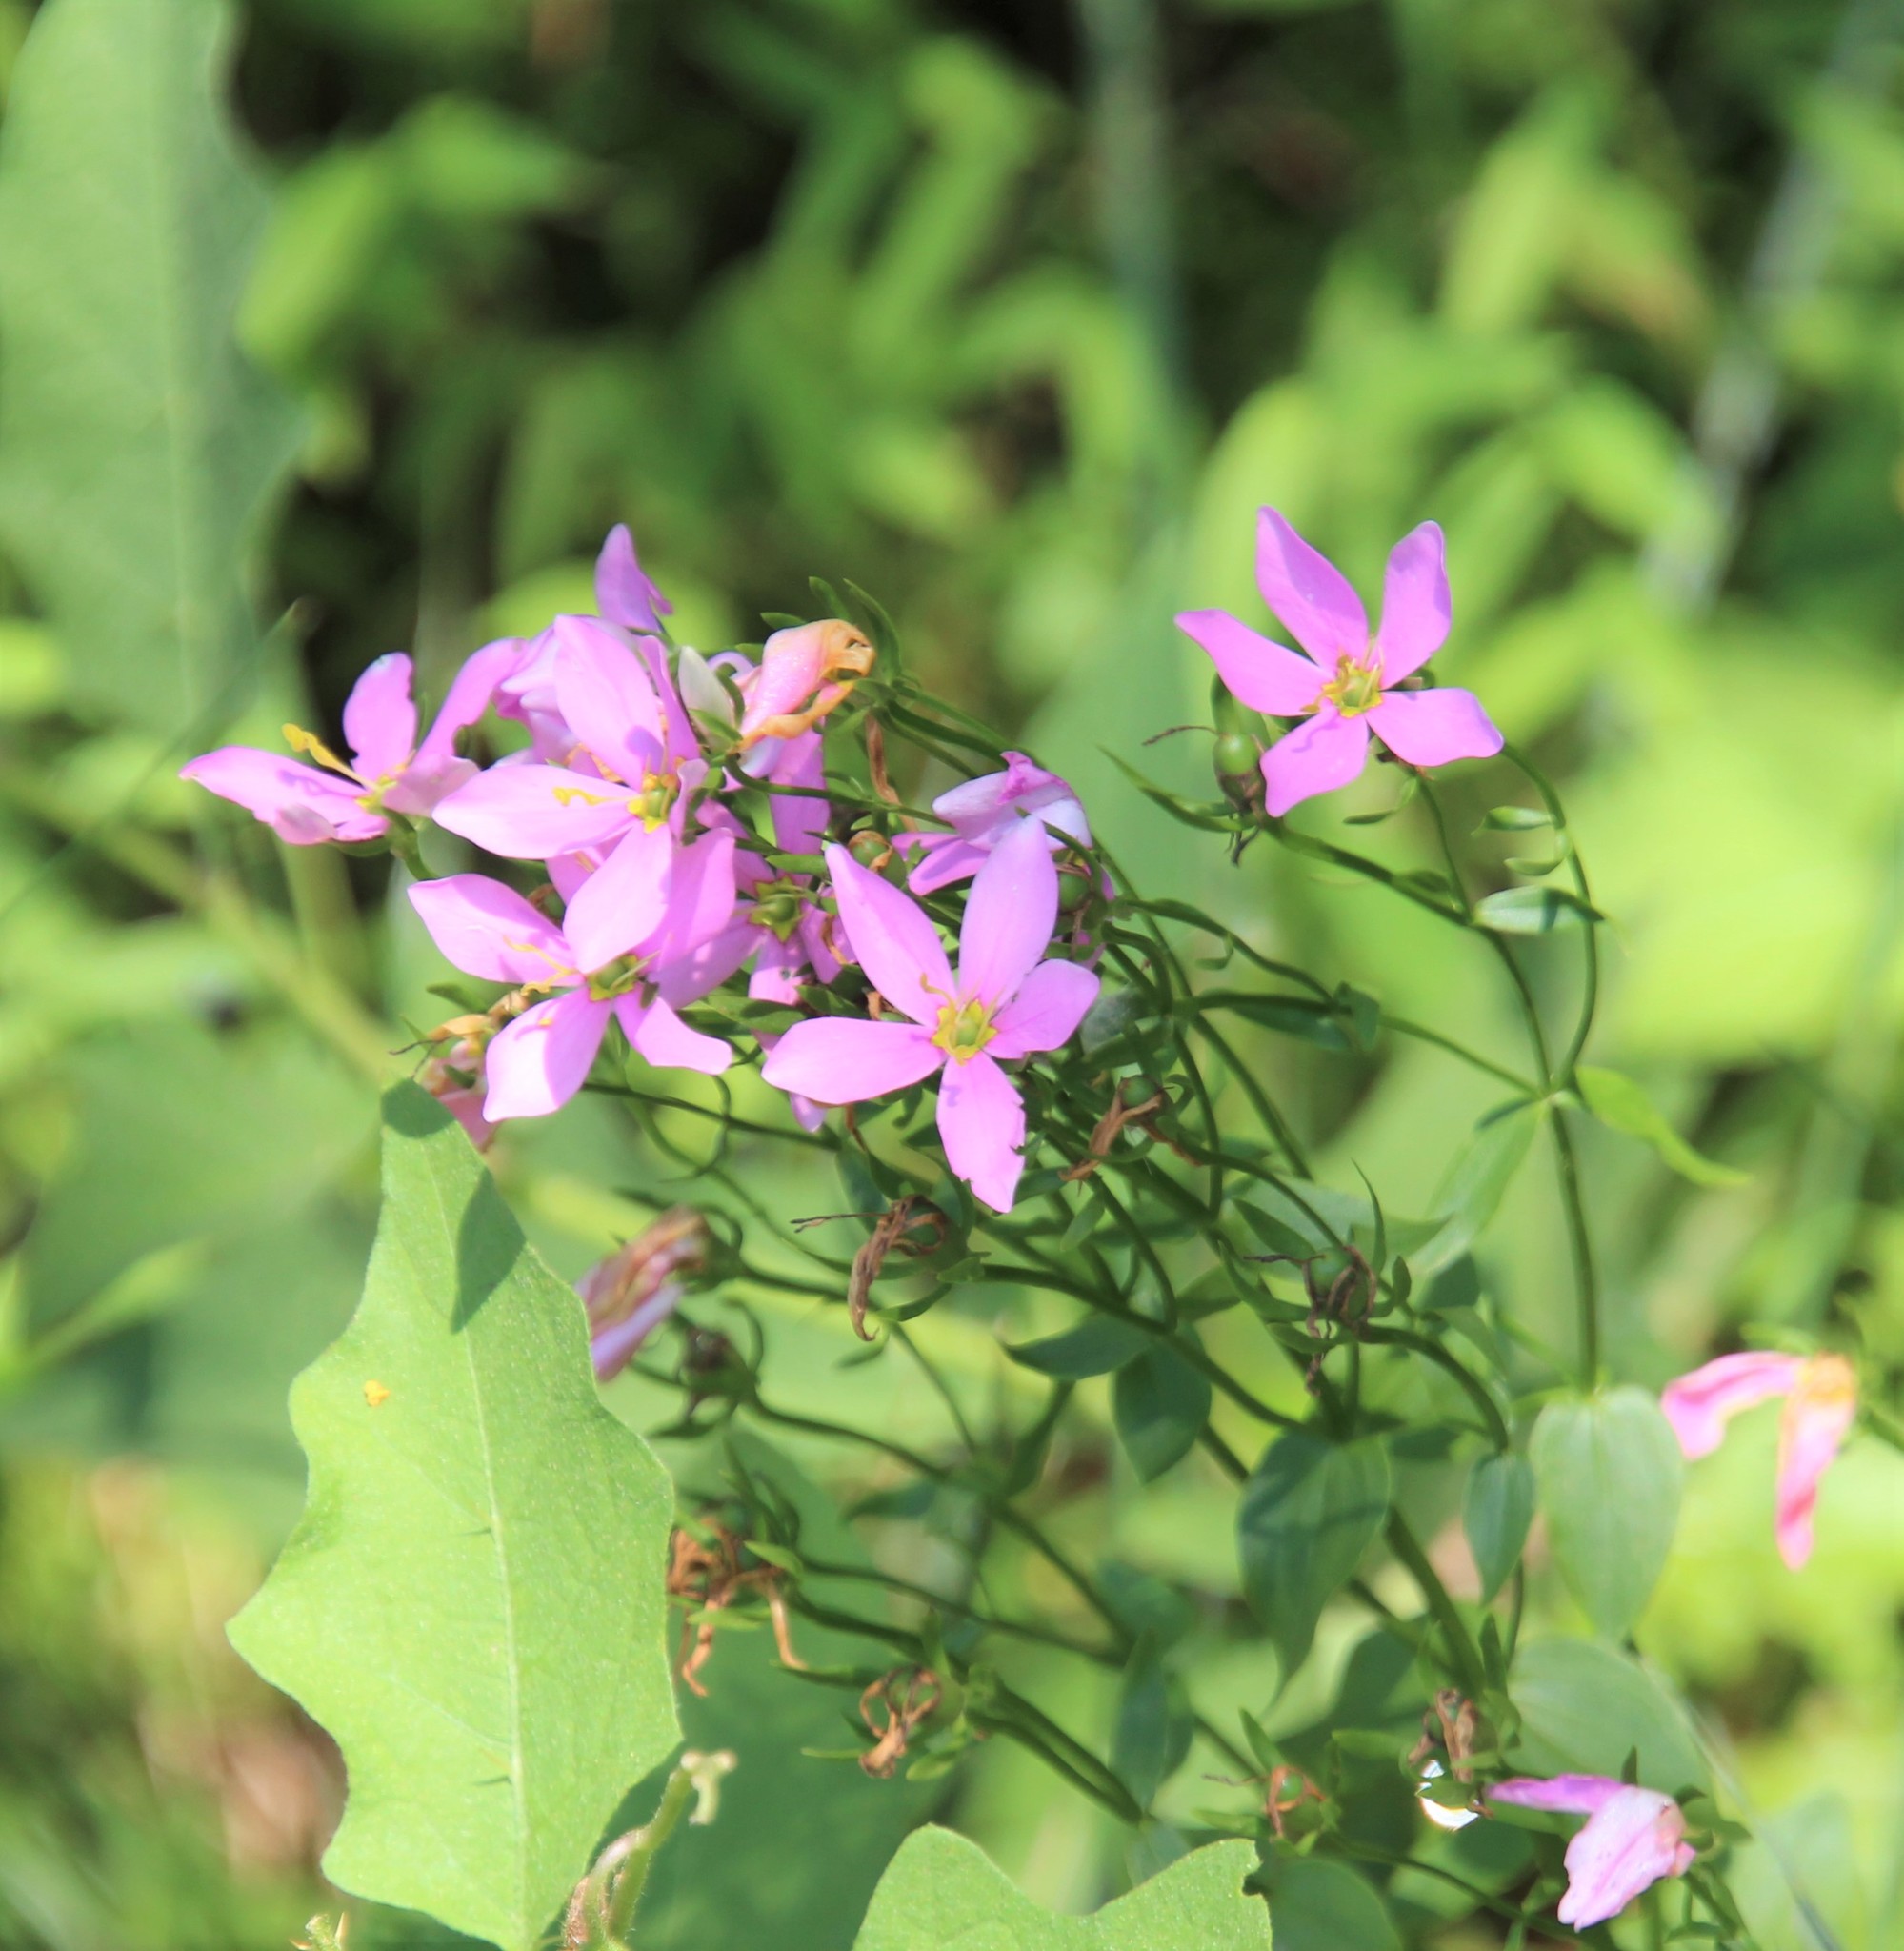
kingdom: Plantae
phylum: Tracheophyta
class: Magnoliopsida
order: Gentianales
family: Gentianaceae
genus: Sabatia
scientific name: Sabatia angularis
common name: Rose-pink
